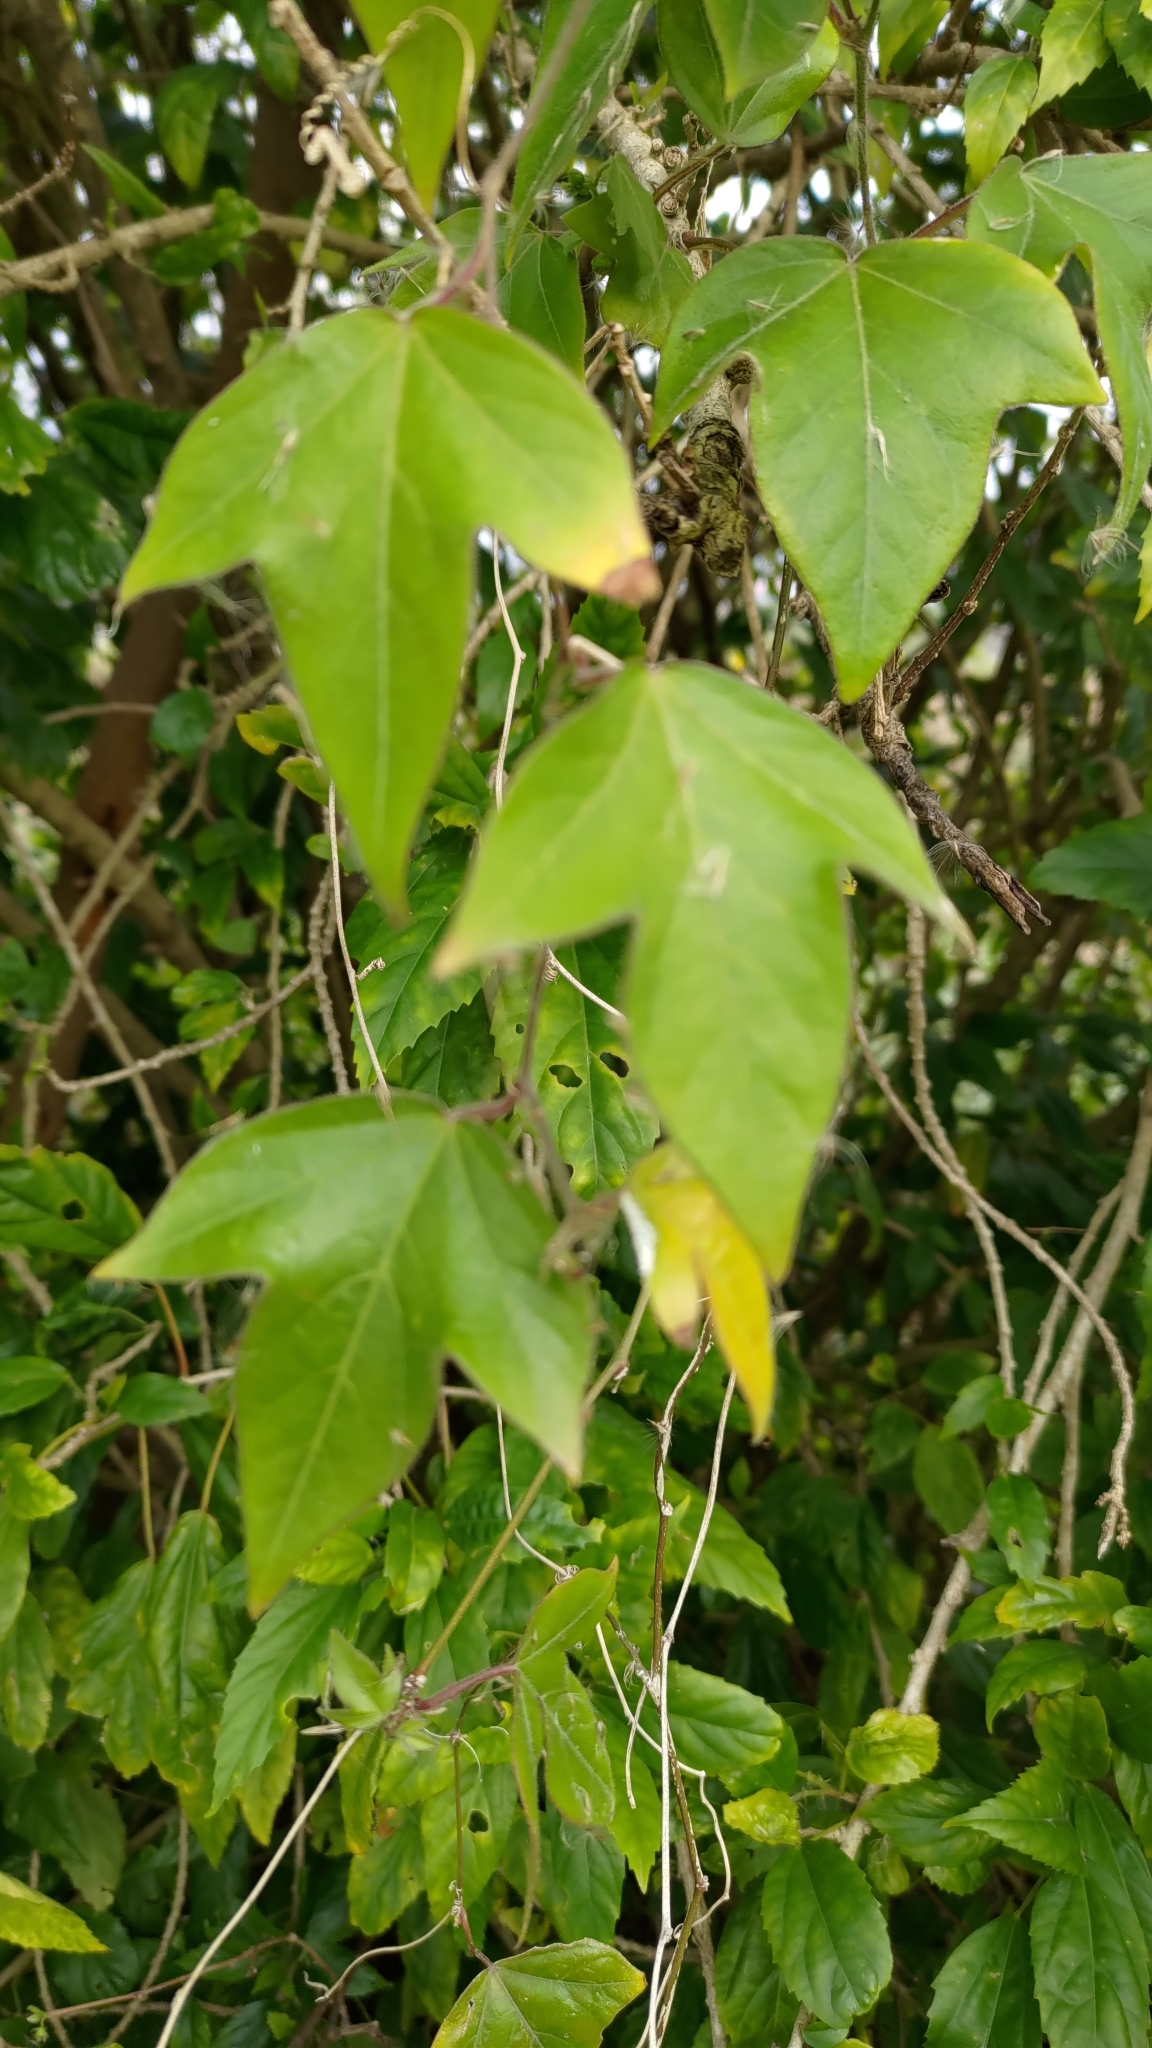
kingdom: Plantae
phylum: Tracheophyta
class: Magnoliopsida
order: Malpighiales
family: Passifloraceae
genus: Passiflora
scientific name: Passiflora suberosa
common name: Wild passionfruit
